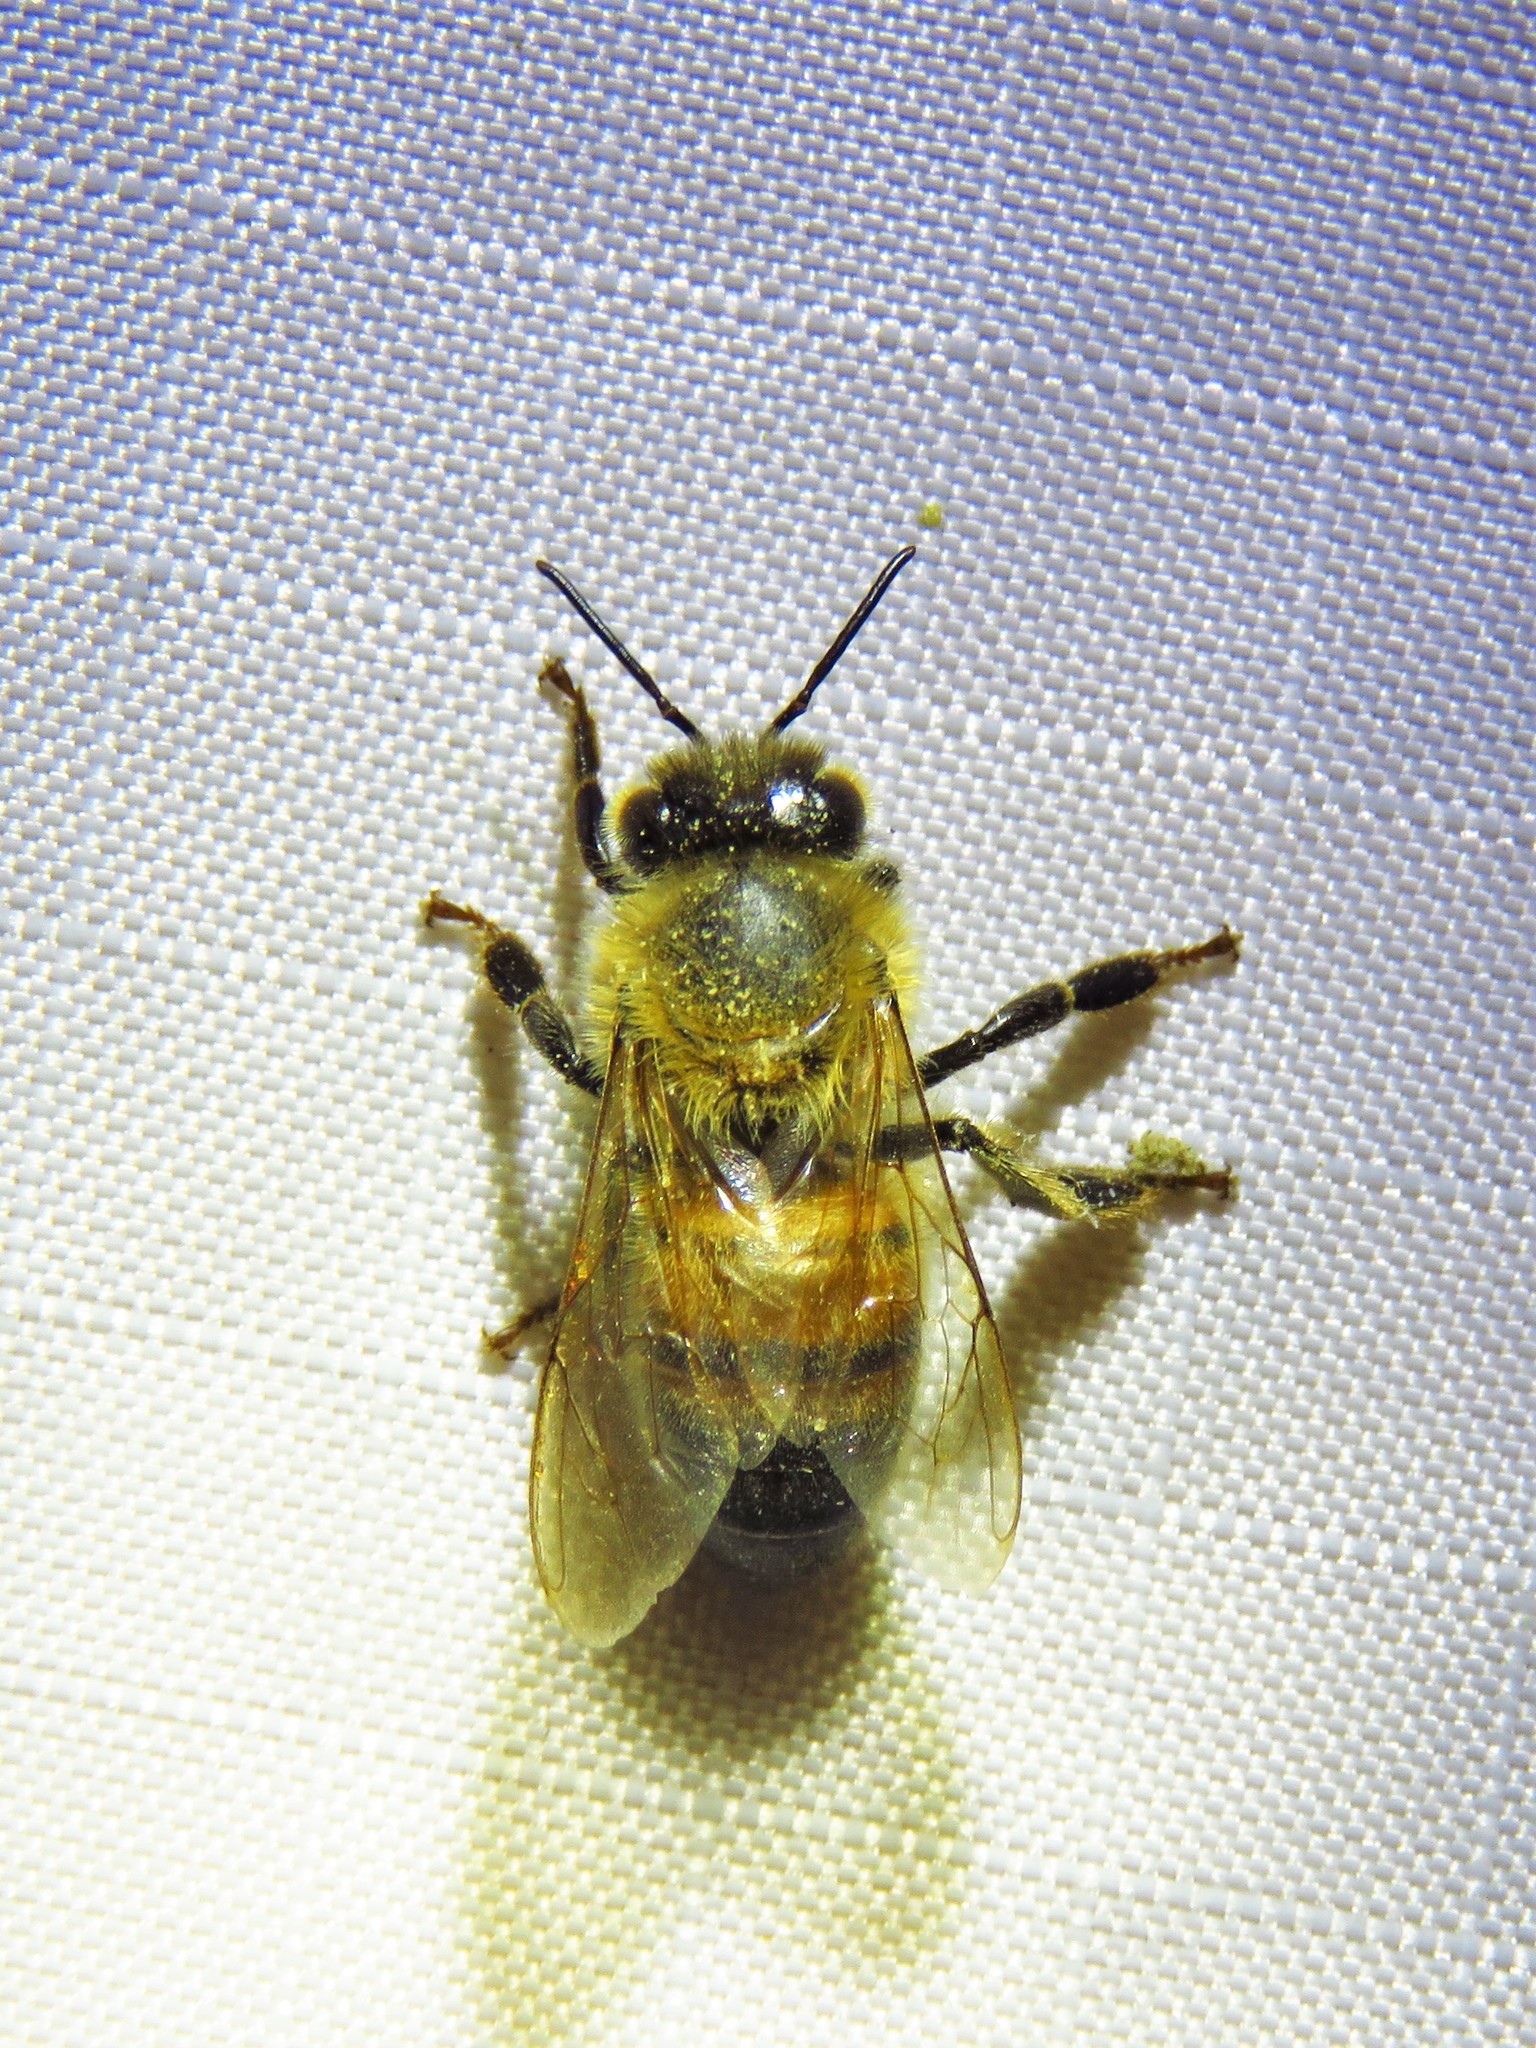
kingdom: Animalia
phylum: Arthropoda
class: Insecta
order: Hymenoptera
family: Apidae
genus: Apis
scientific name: Apis mellifera
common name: Honey bee
